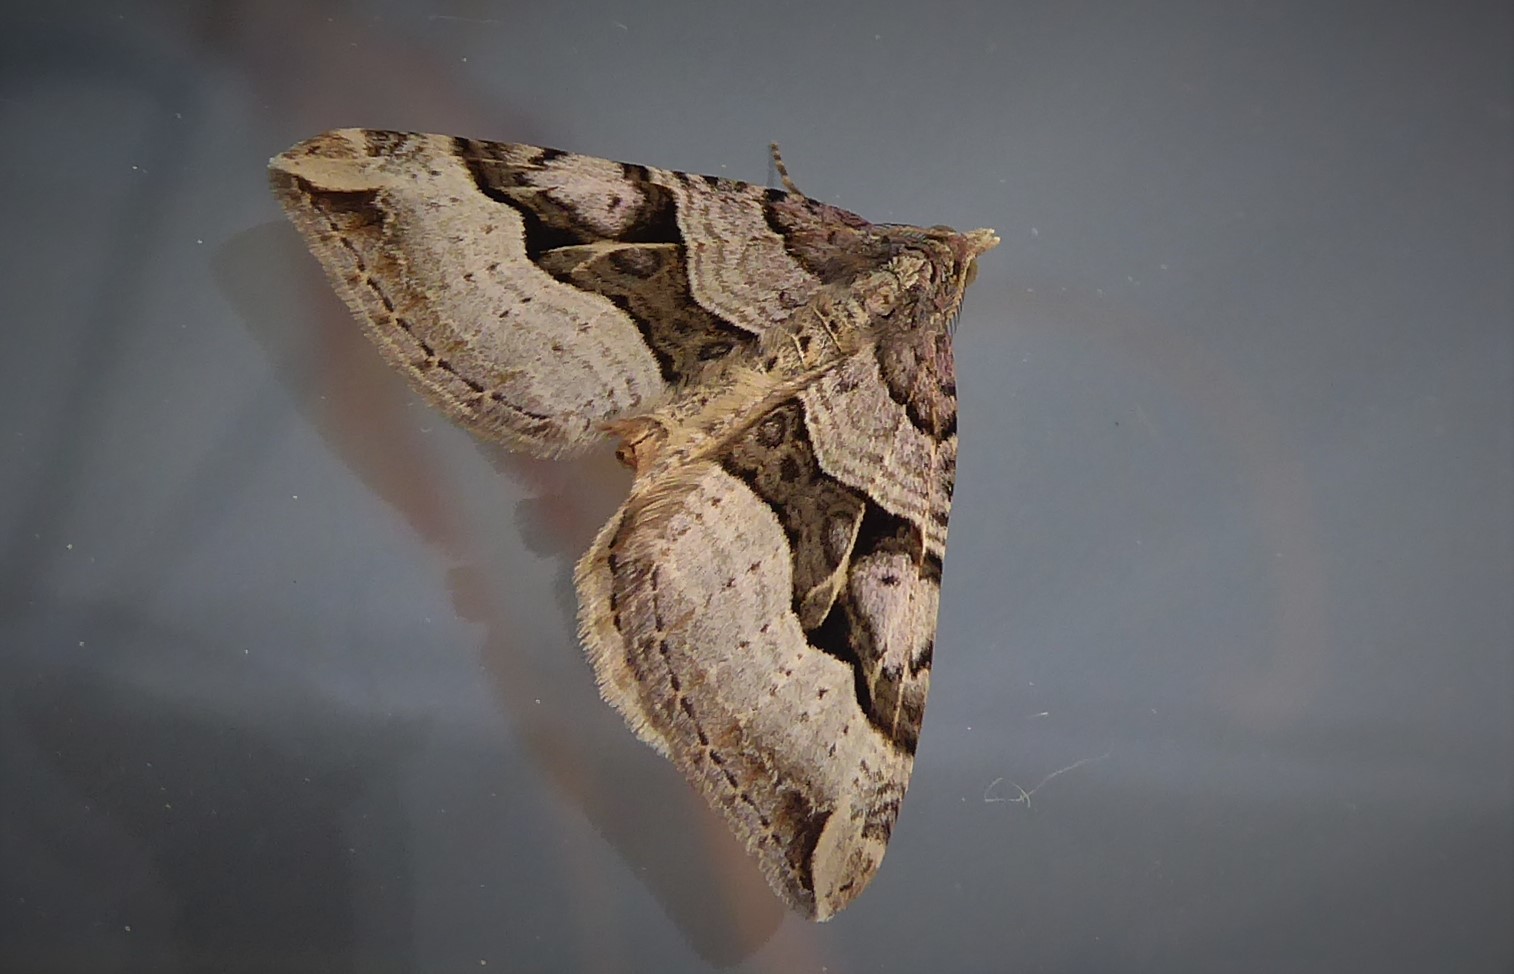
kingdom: Animalia
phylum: Arthropoda
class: Insecta
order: Lepidoptera
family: Geometridae
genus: Xanthorhoe
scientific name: Xanthorhoe semifissata
